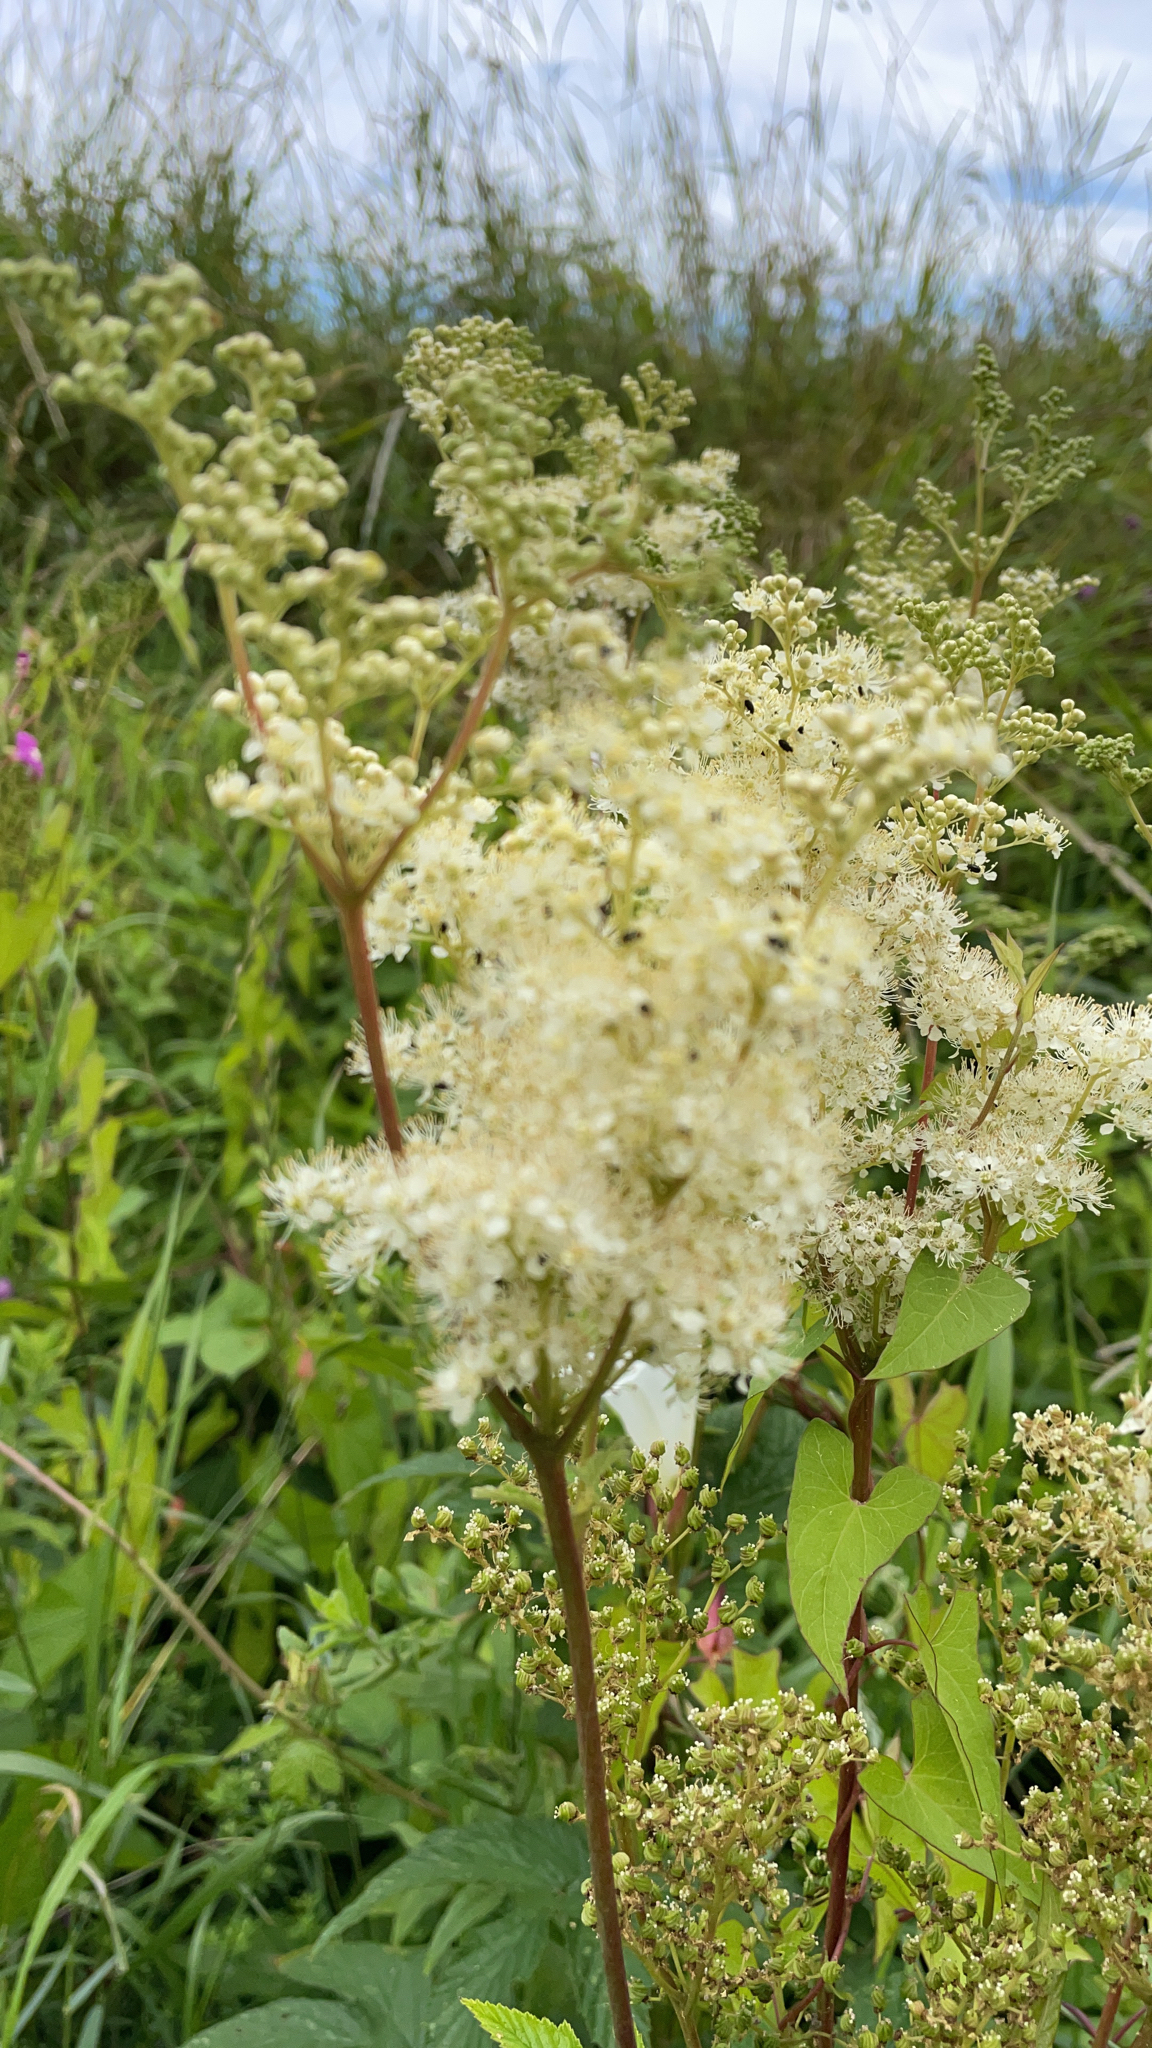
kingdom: Plantae
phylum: Tracheophyta
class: Magnoliopsida
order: Rosales
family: Rosaceae
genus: Filipendula
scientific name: Filipendula ulmaria
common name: Meadowsweet
